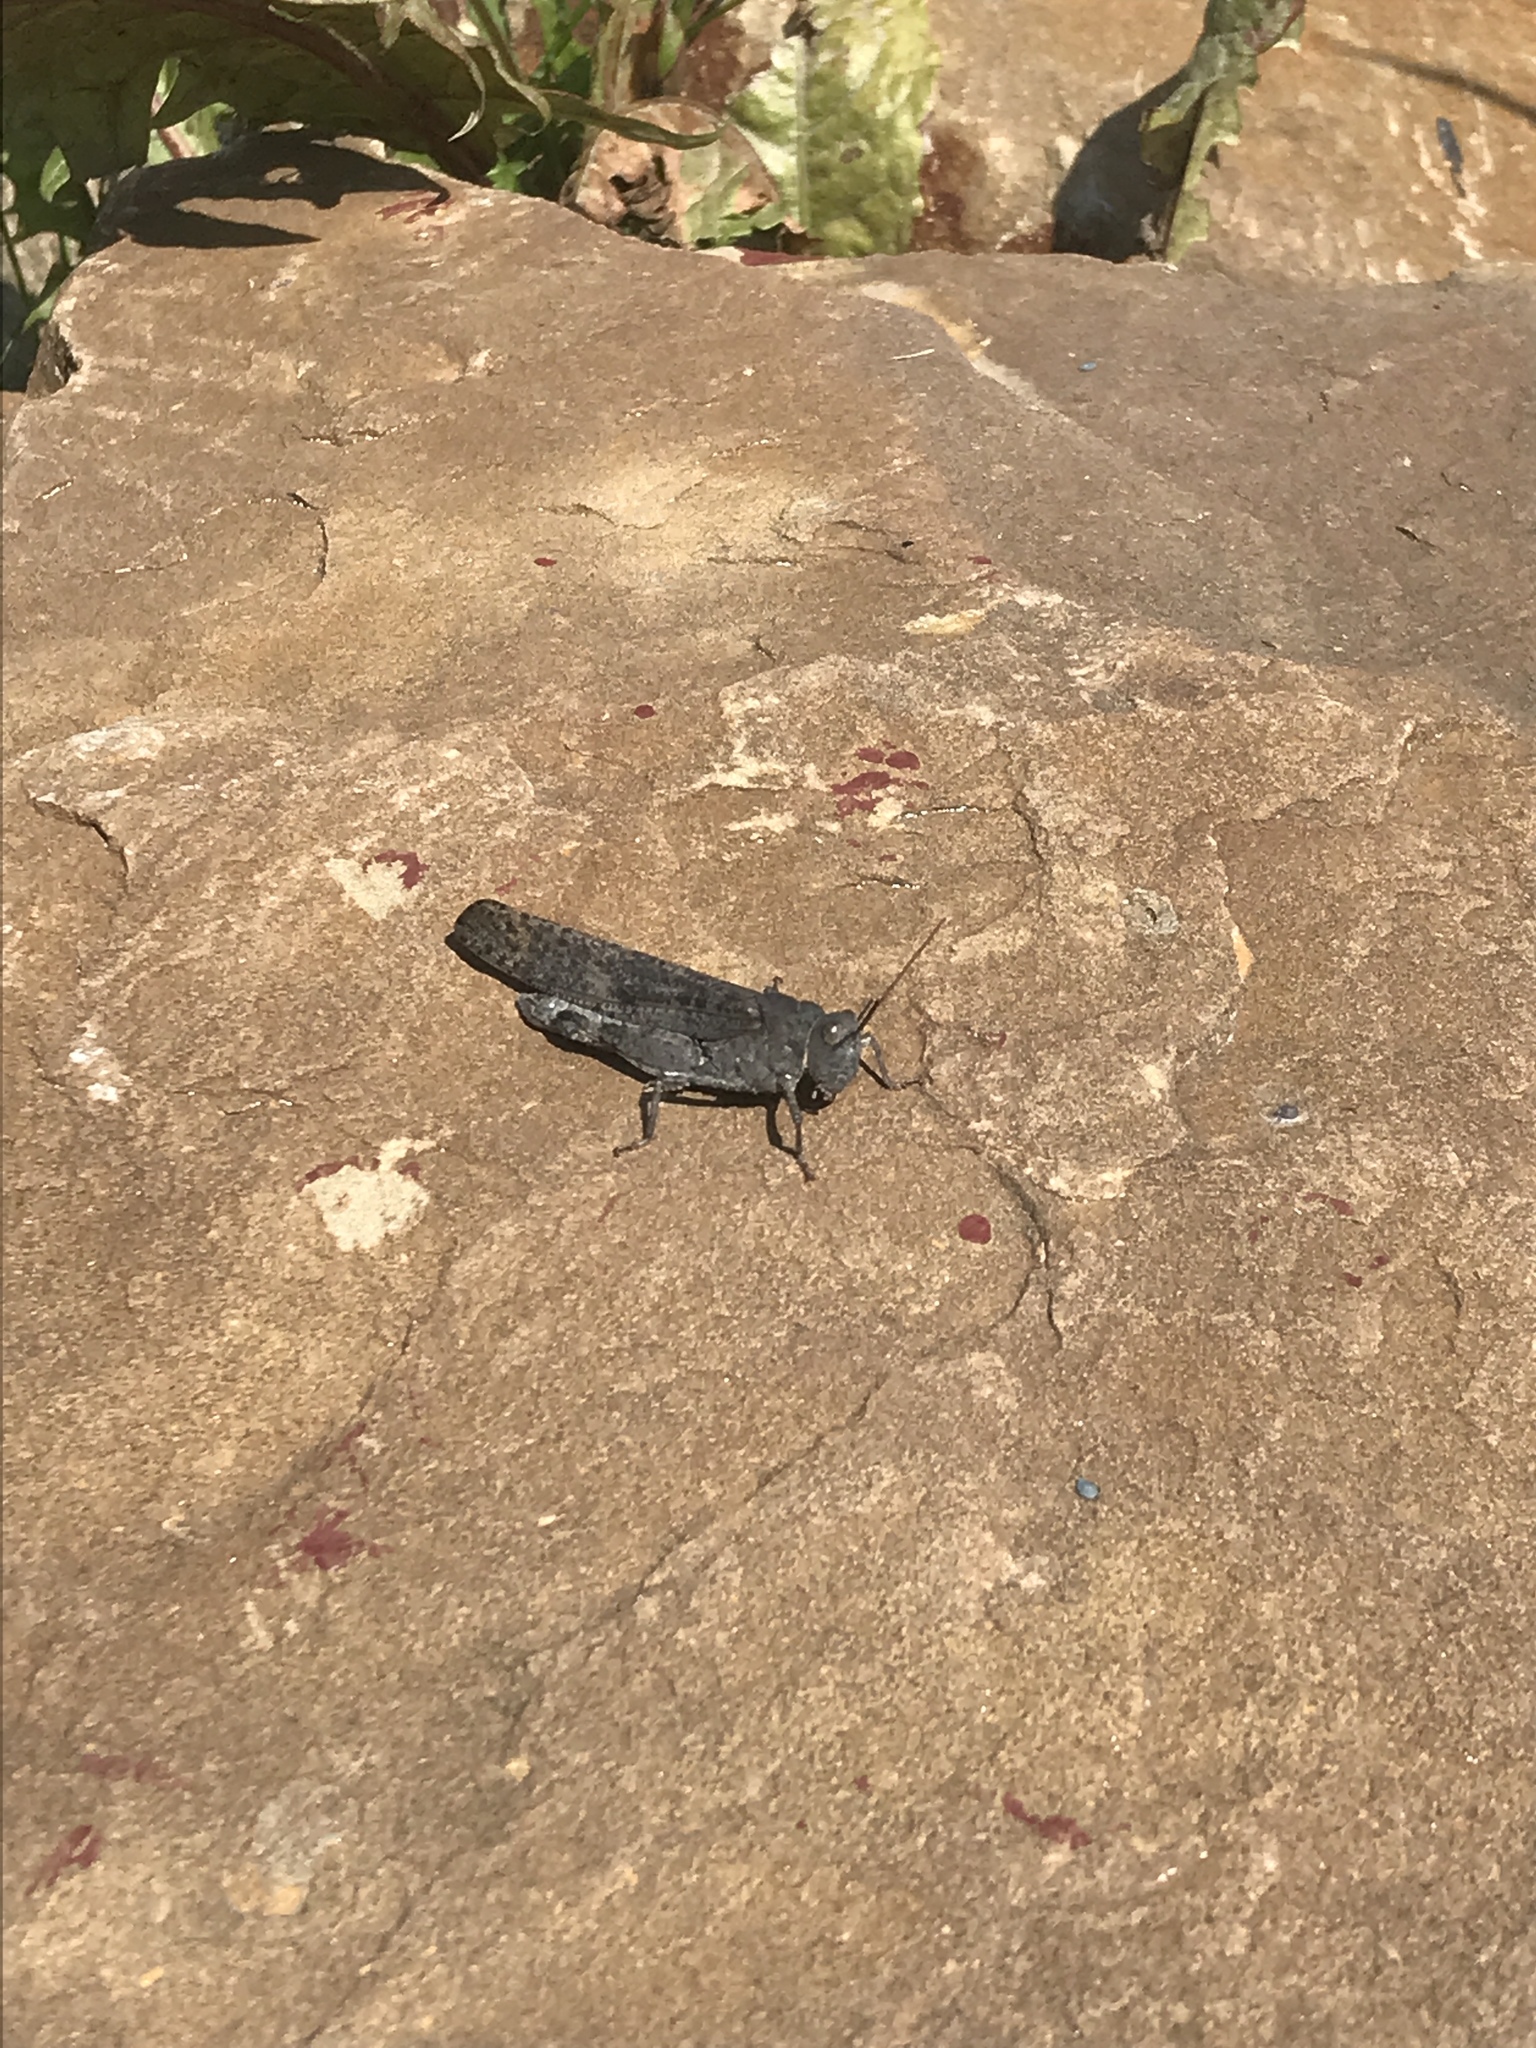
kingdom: Animalia
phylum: Arthropoda
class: Insecta
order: Orthoptera
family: Acrididae
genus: Dissosteira
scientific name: Dissosteira carolina
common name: Carolina grasshopper
